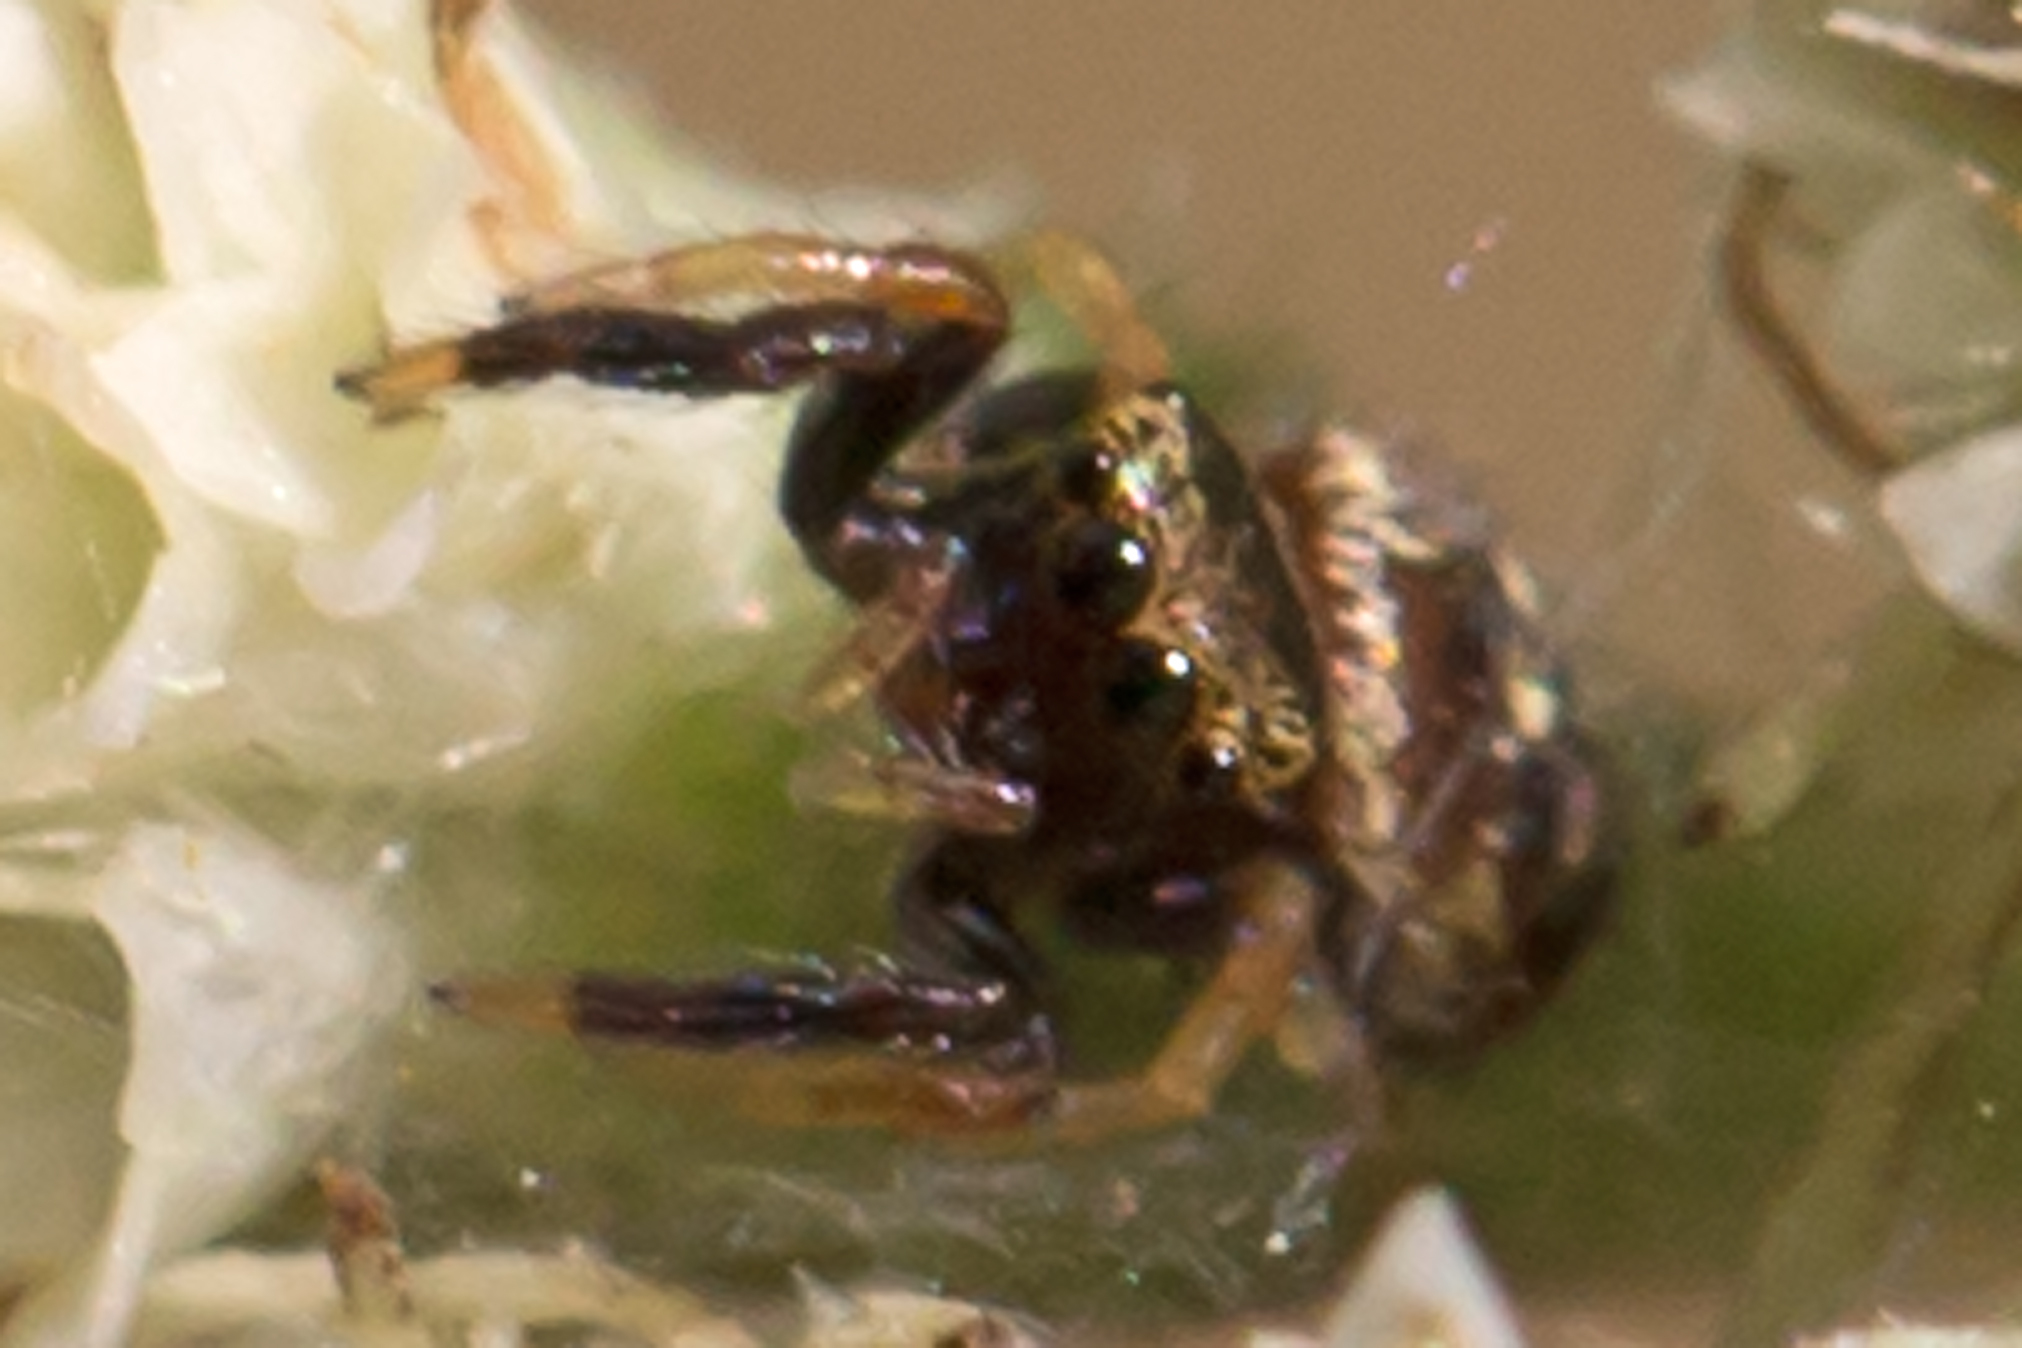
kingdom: Animalia
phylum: Arthropoda
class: Arachnida
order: Araneae
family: Salticidae
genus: Paraphidippus
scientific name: Paraphidippus aurantius
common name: Jumping spiders
